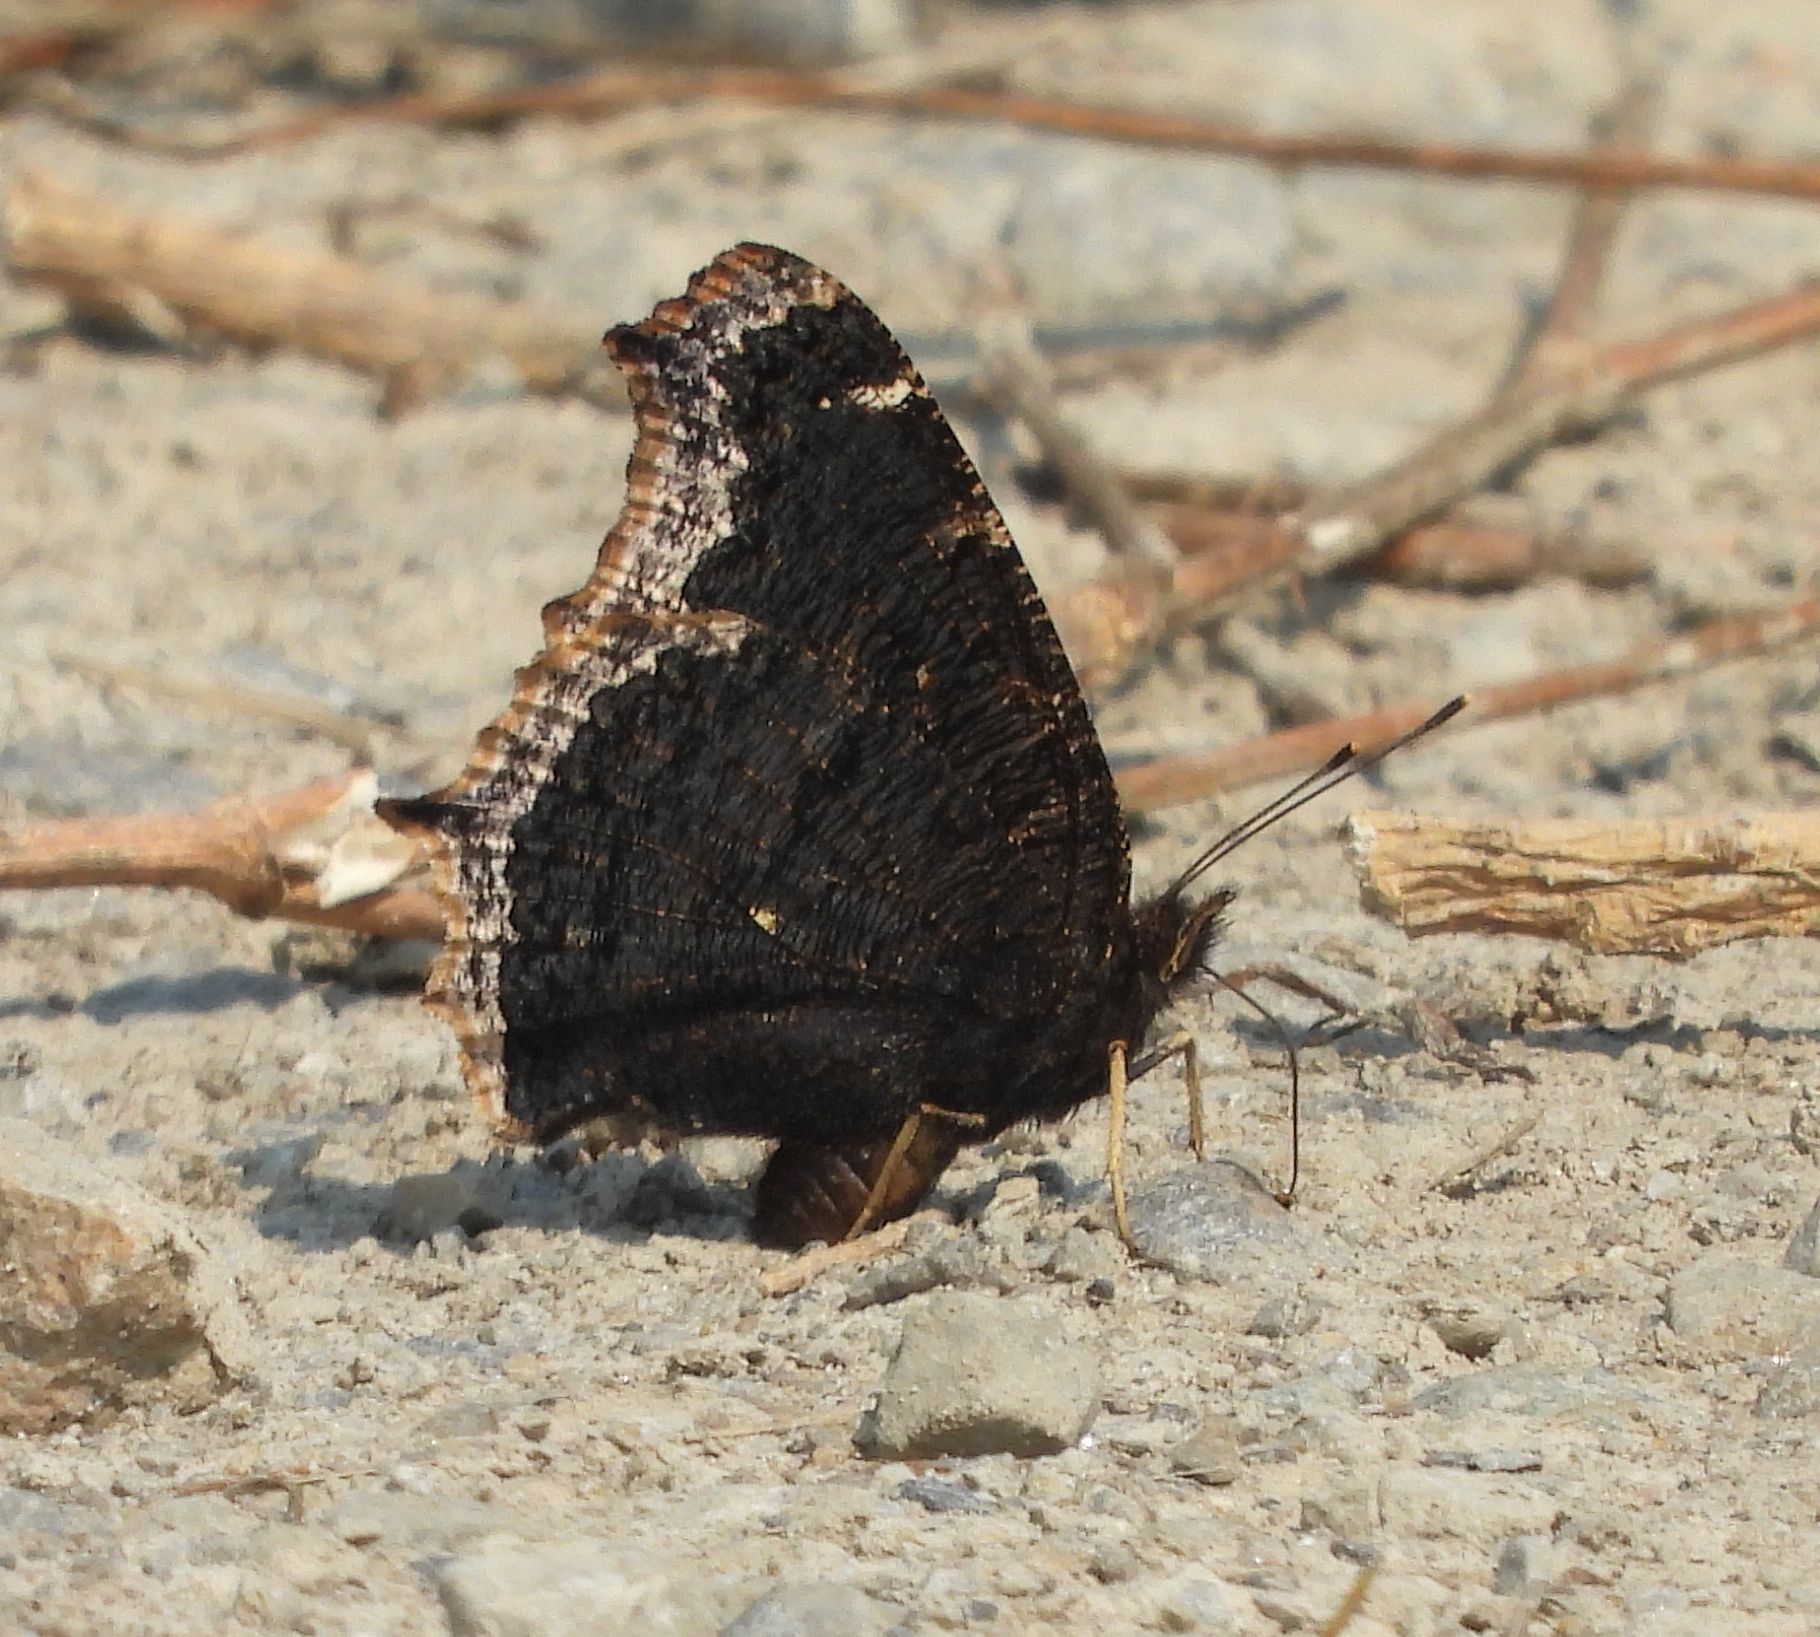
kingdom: Animalia
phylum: Arthropoda
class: Insecta
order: Lepidoptera
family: Nymphalidae
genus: Nymphalis
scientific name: Nymphalis antiopa
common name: Camberwell beauty
